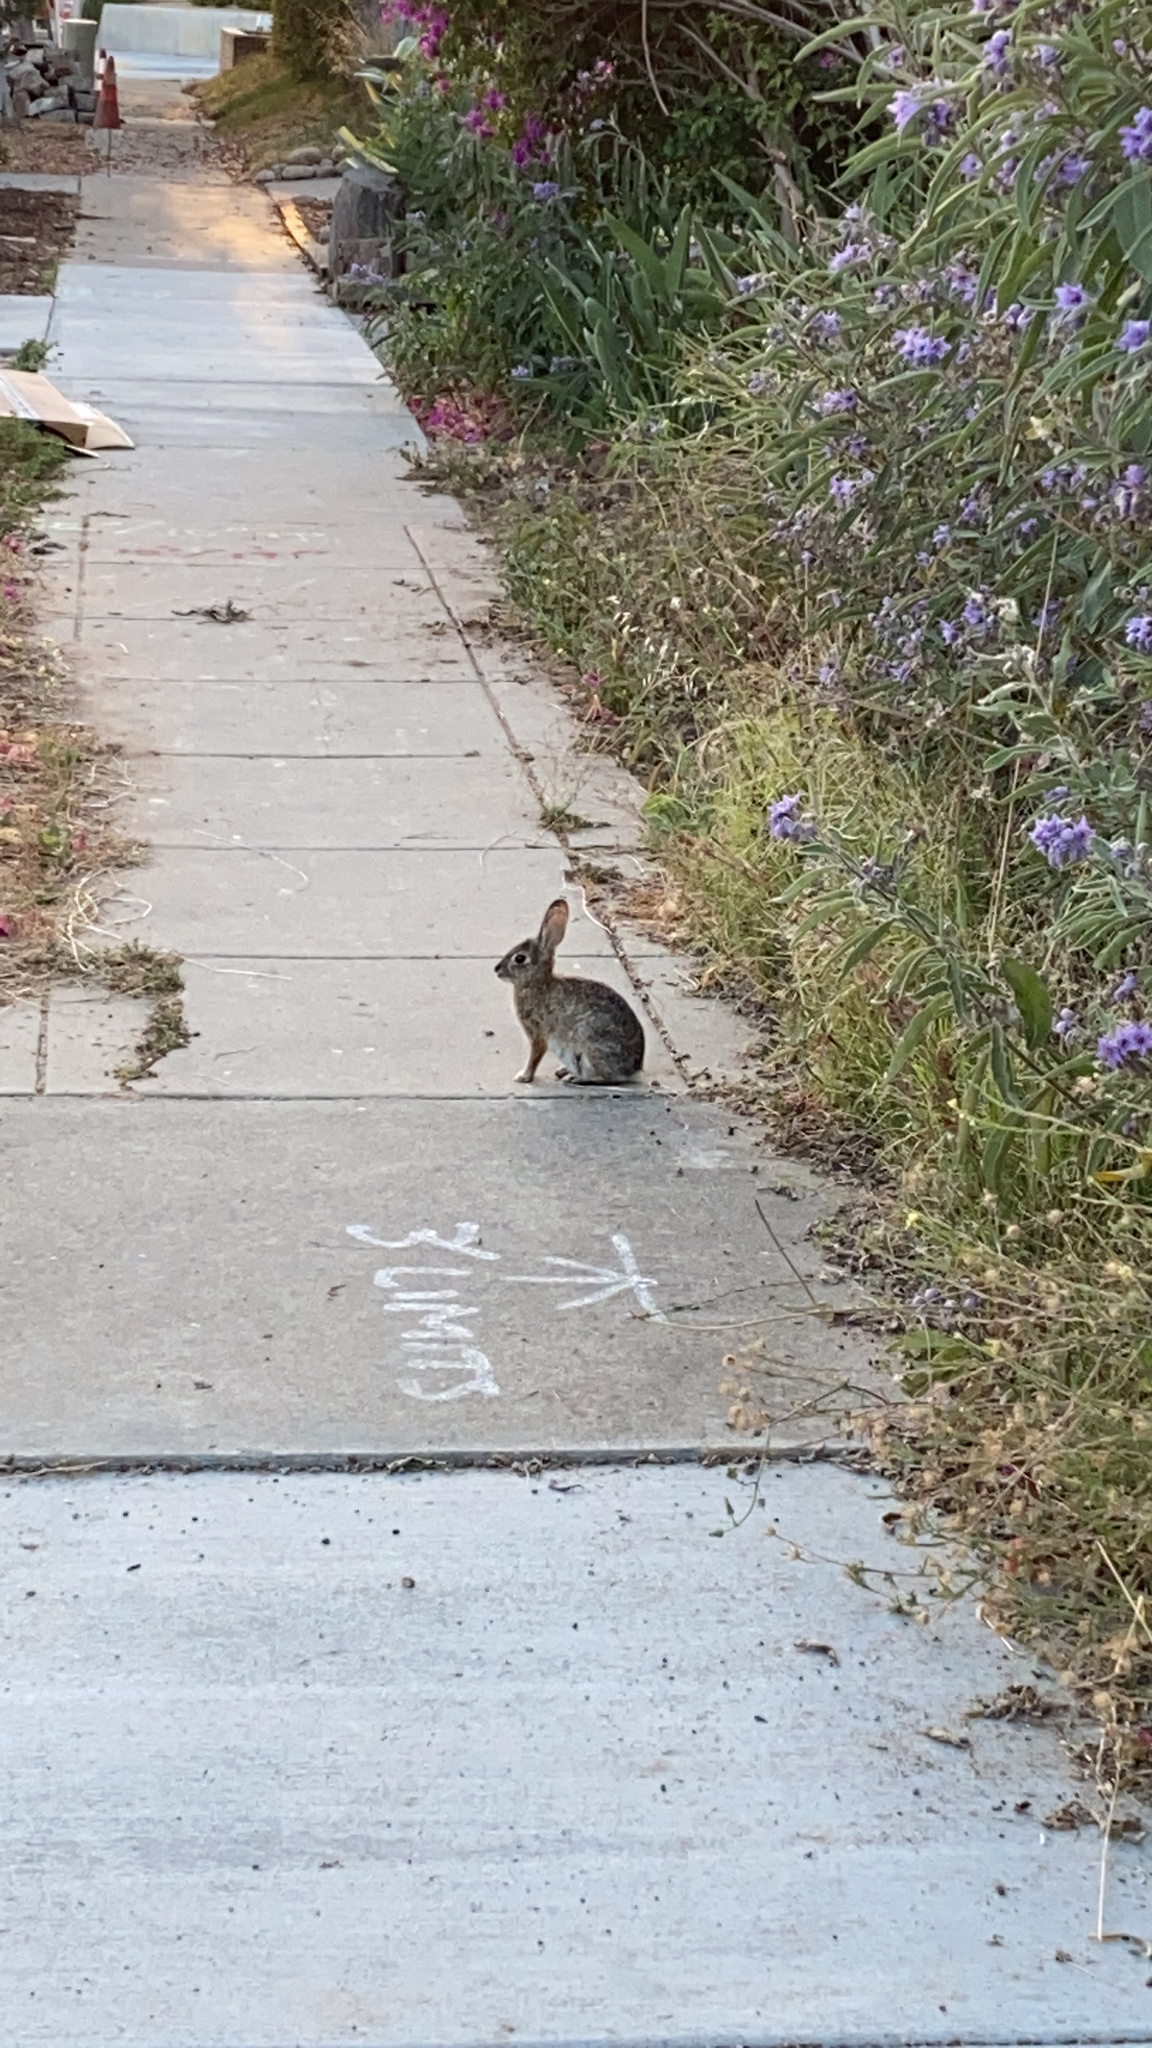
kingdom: Animalia
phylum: Chordata
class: Mammalia
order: Lagomorpha
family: Leporidae
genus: Sylvilagus
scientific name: Sylvilagus audubonii
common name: Desert cottontail
